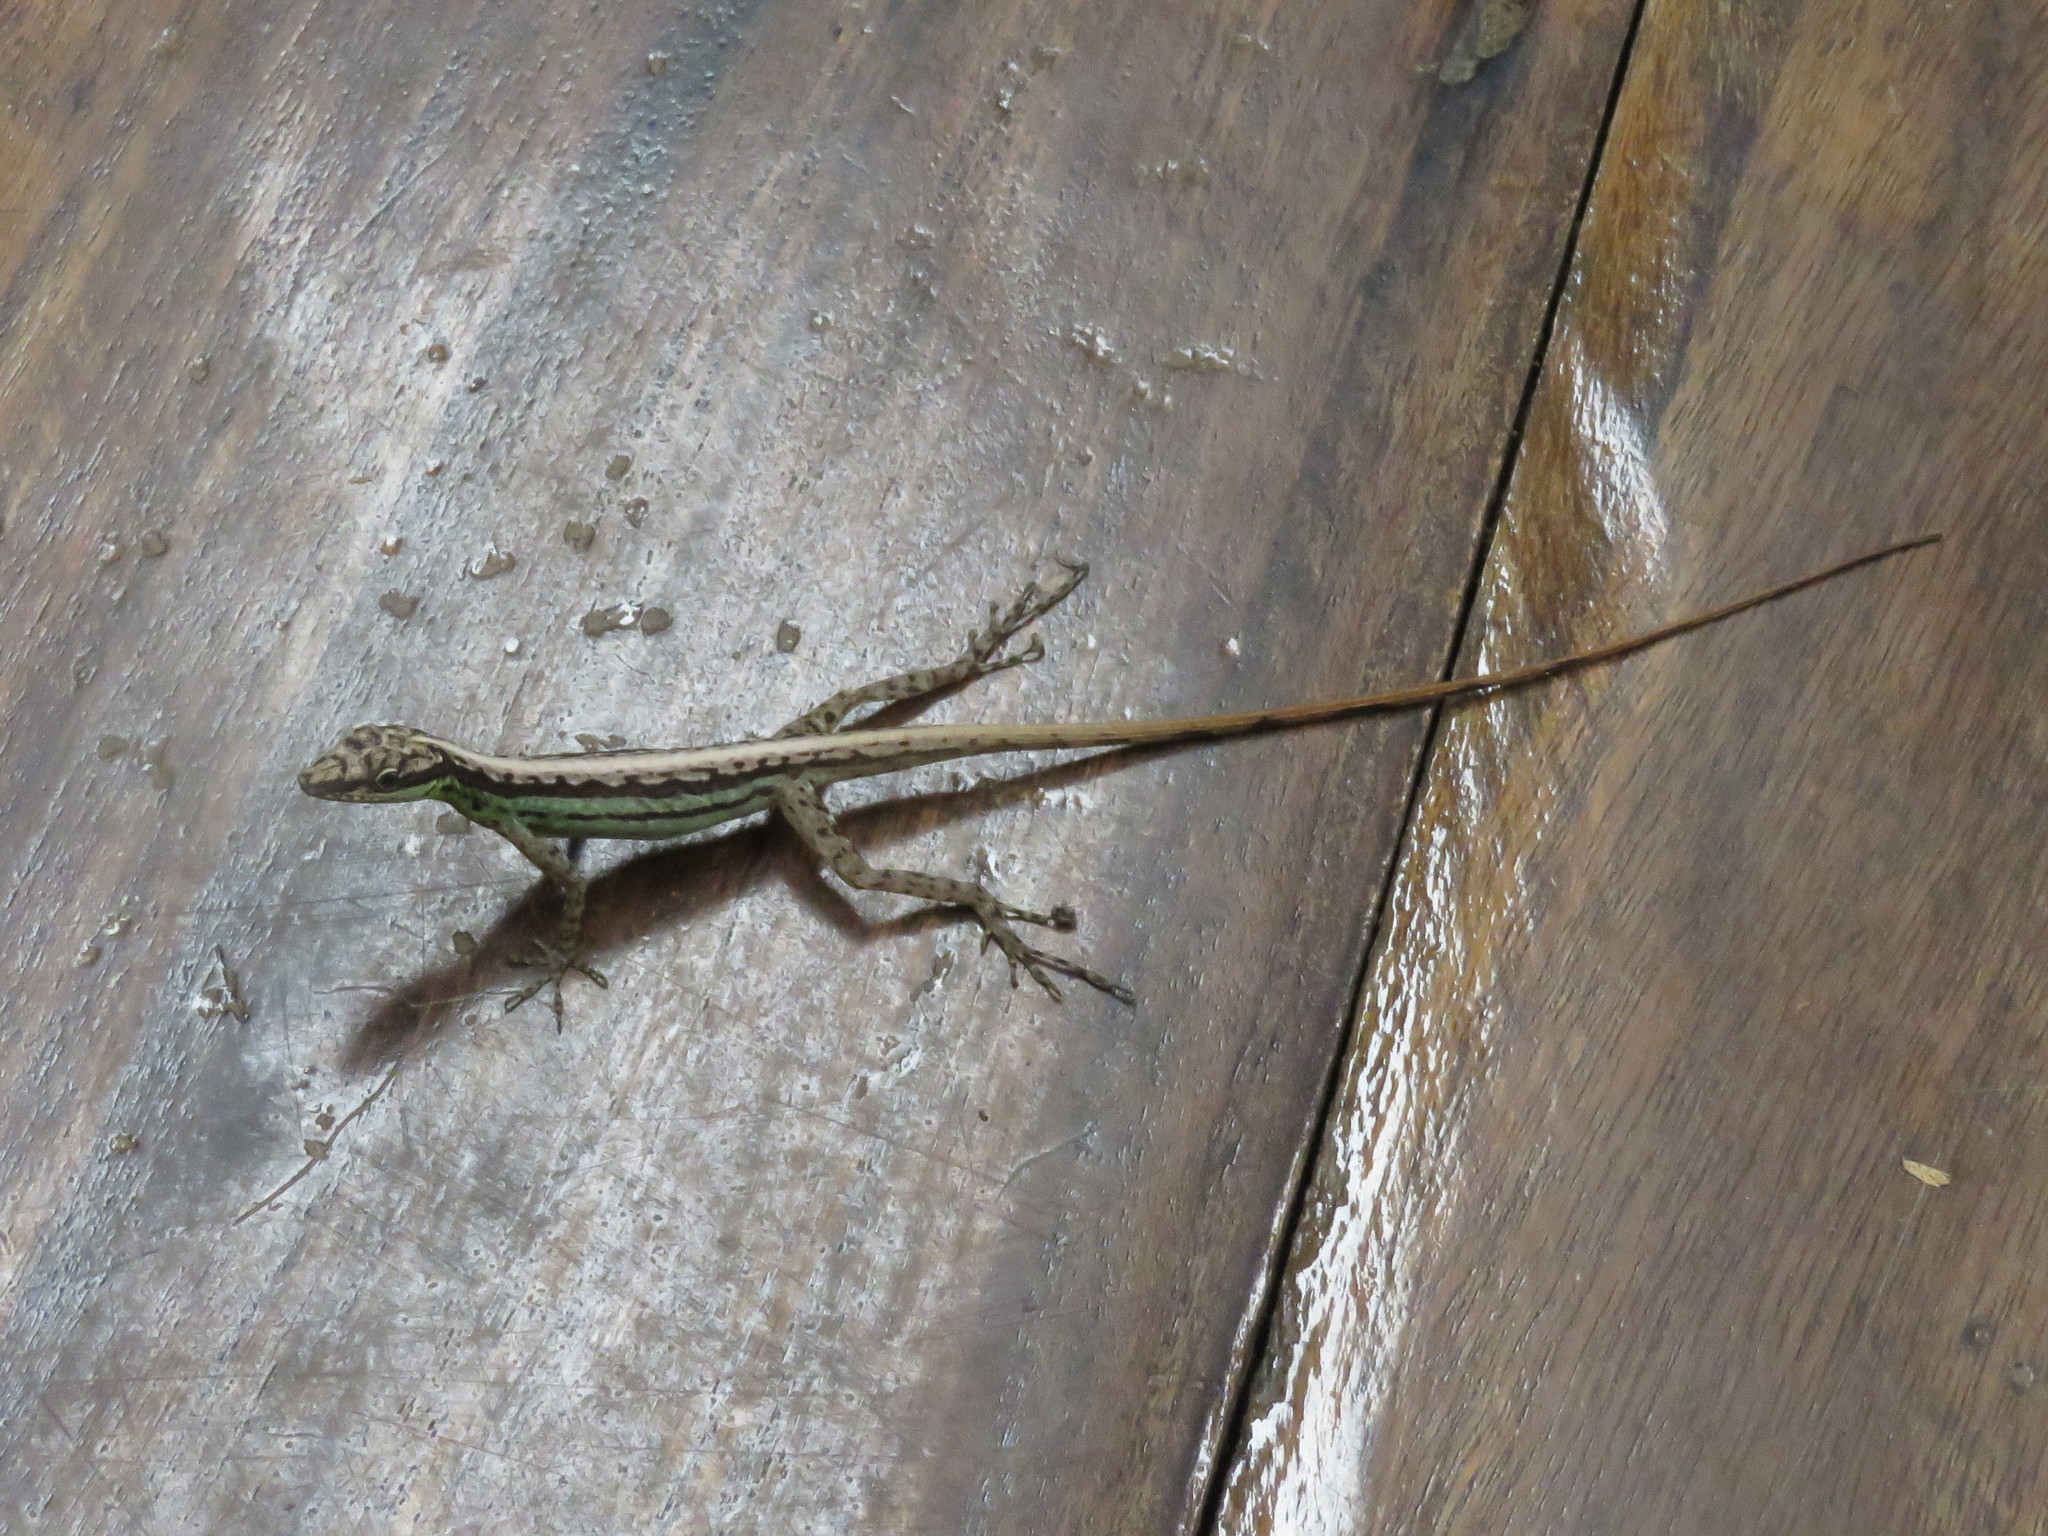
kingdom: Animalia
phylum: Chordata
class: Squamata
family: Dactyloidae
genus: Anolis
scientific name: Anolis anchicayae
